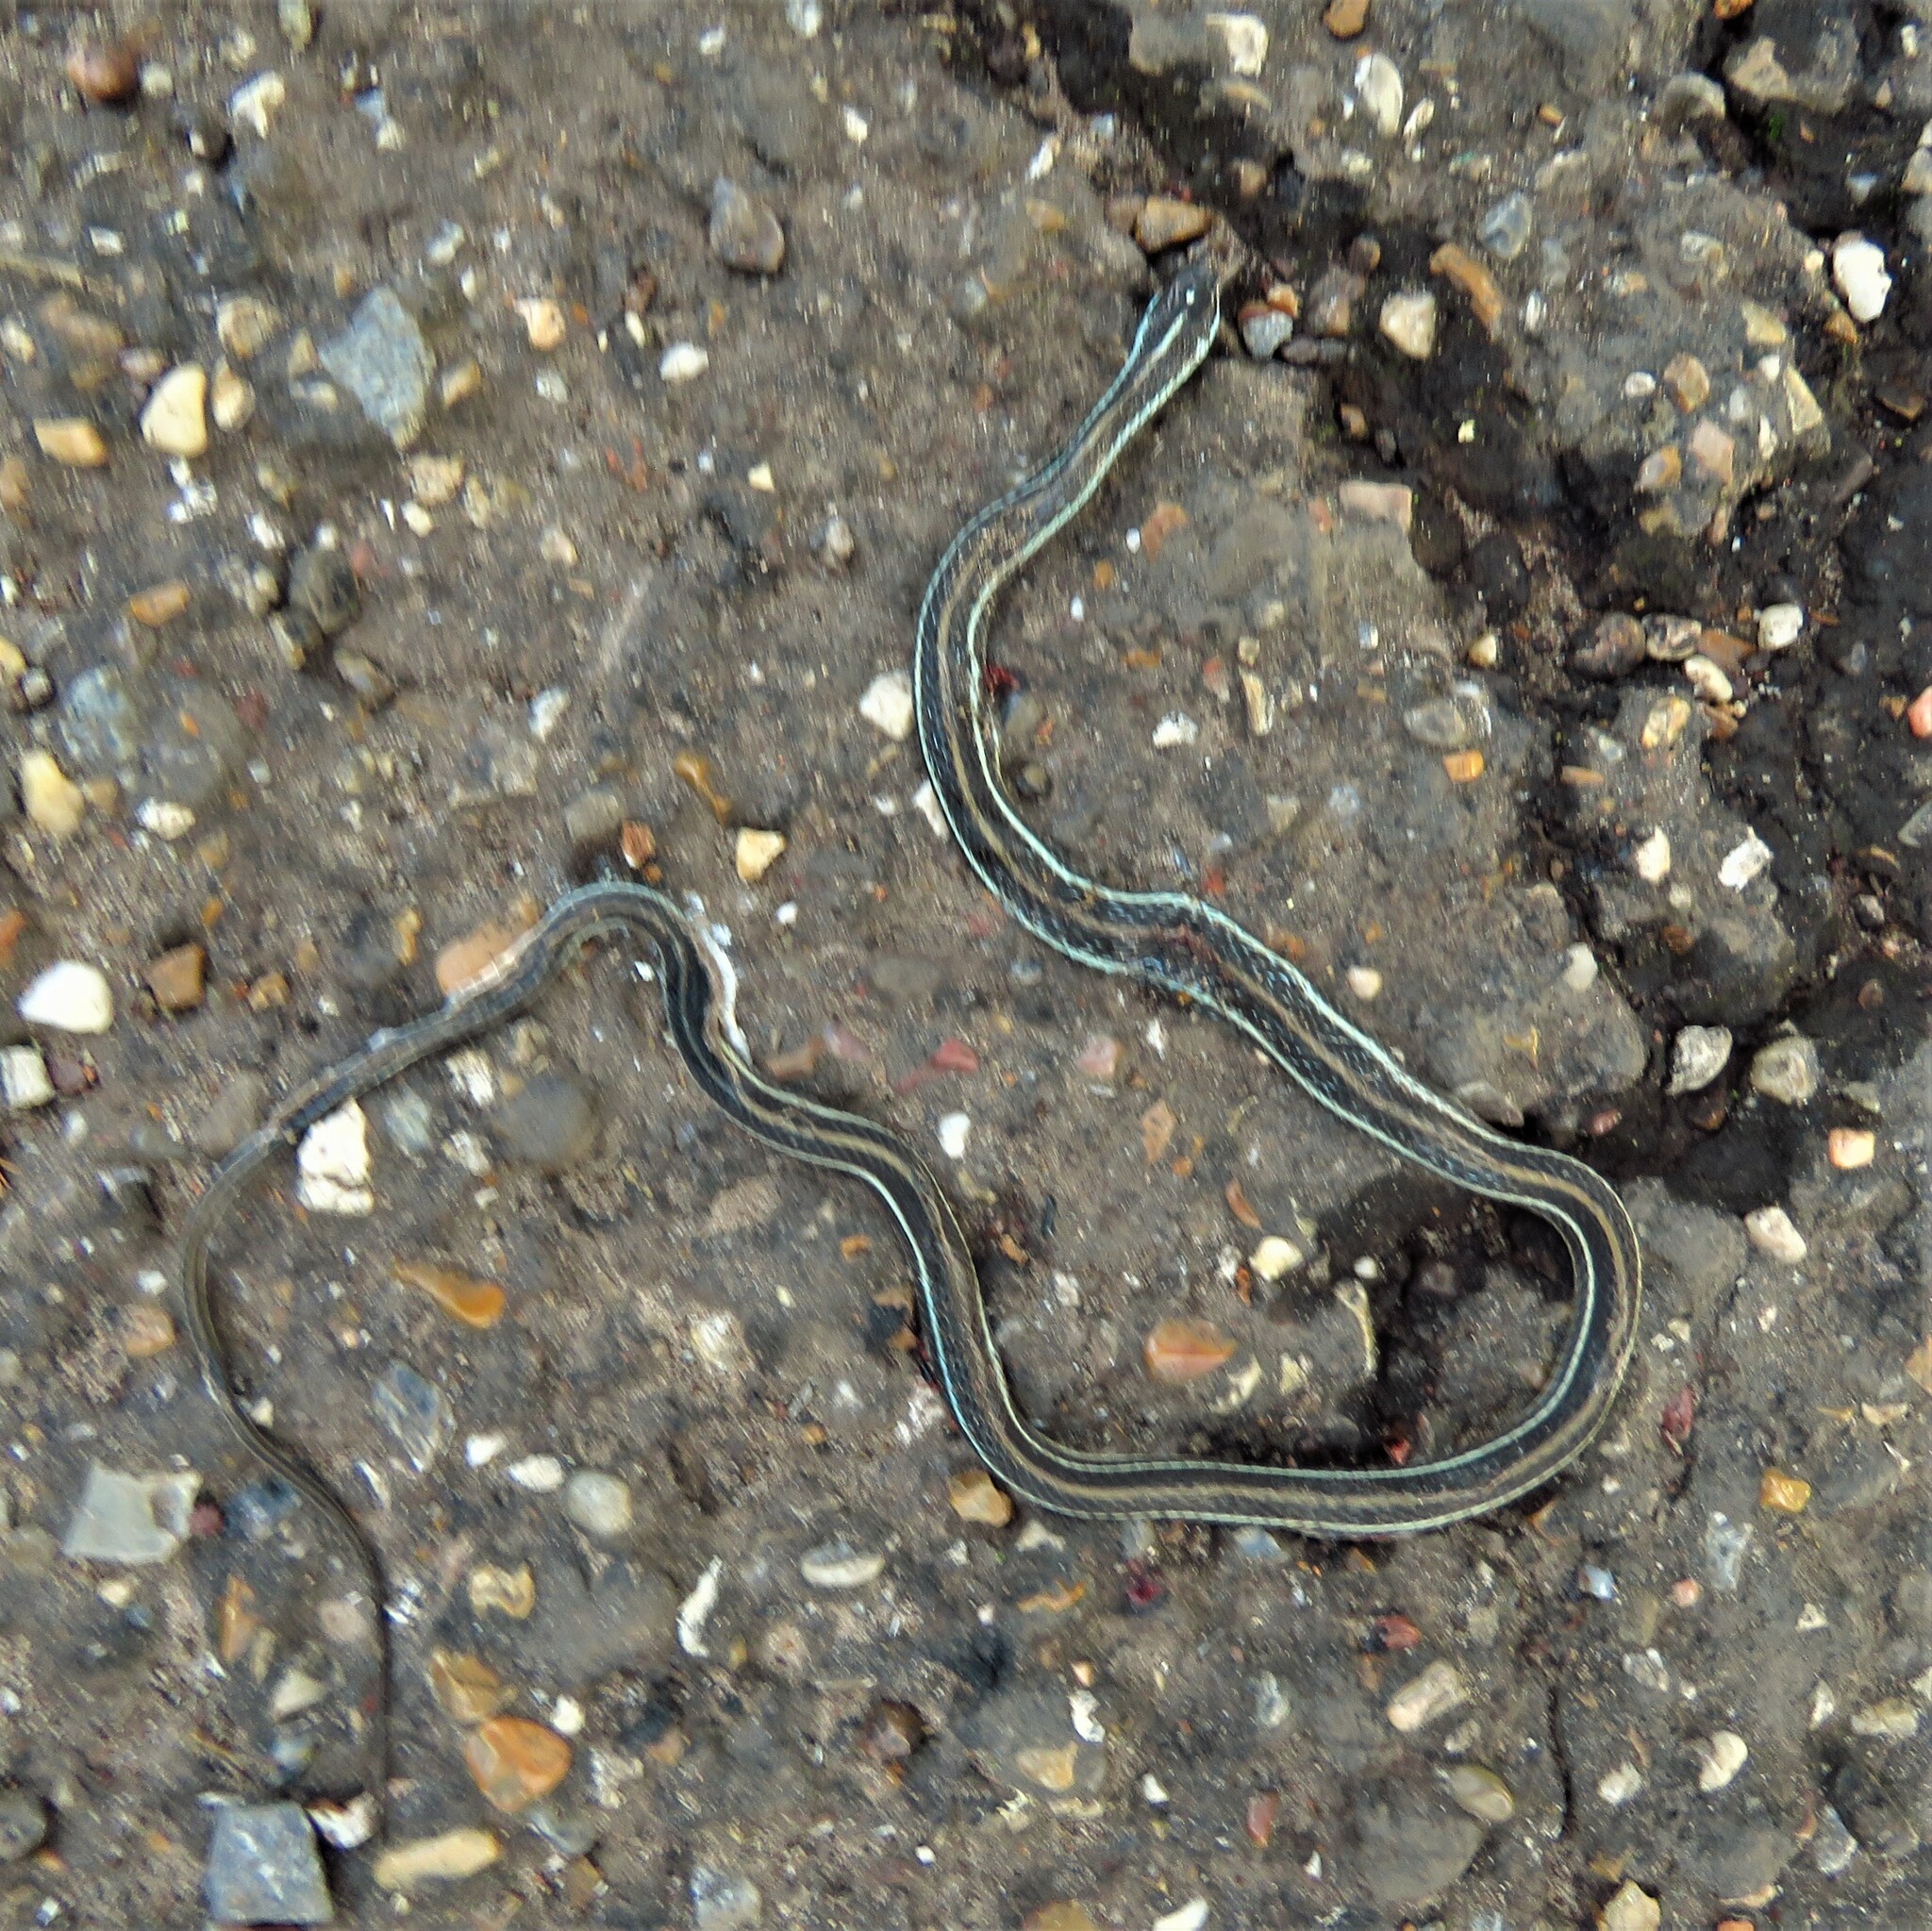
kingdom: Animalia
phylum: Chordata
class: Squamata
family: Colubridae
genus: Thamnophis
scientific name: Thamnophis proximus
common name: Western ribbon snake
